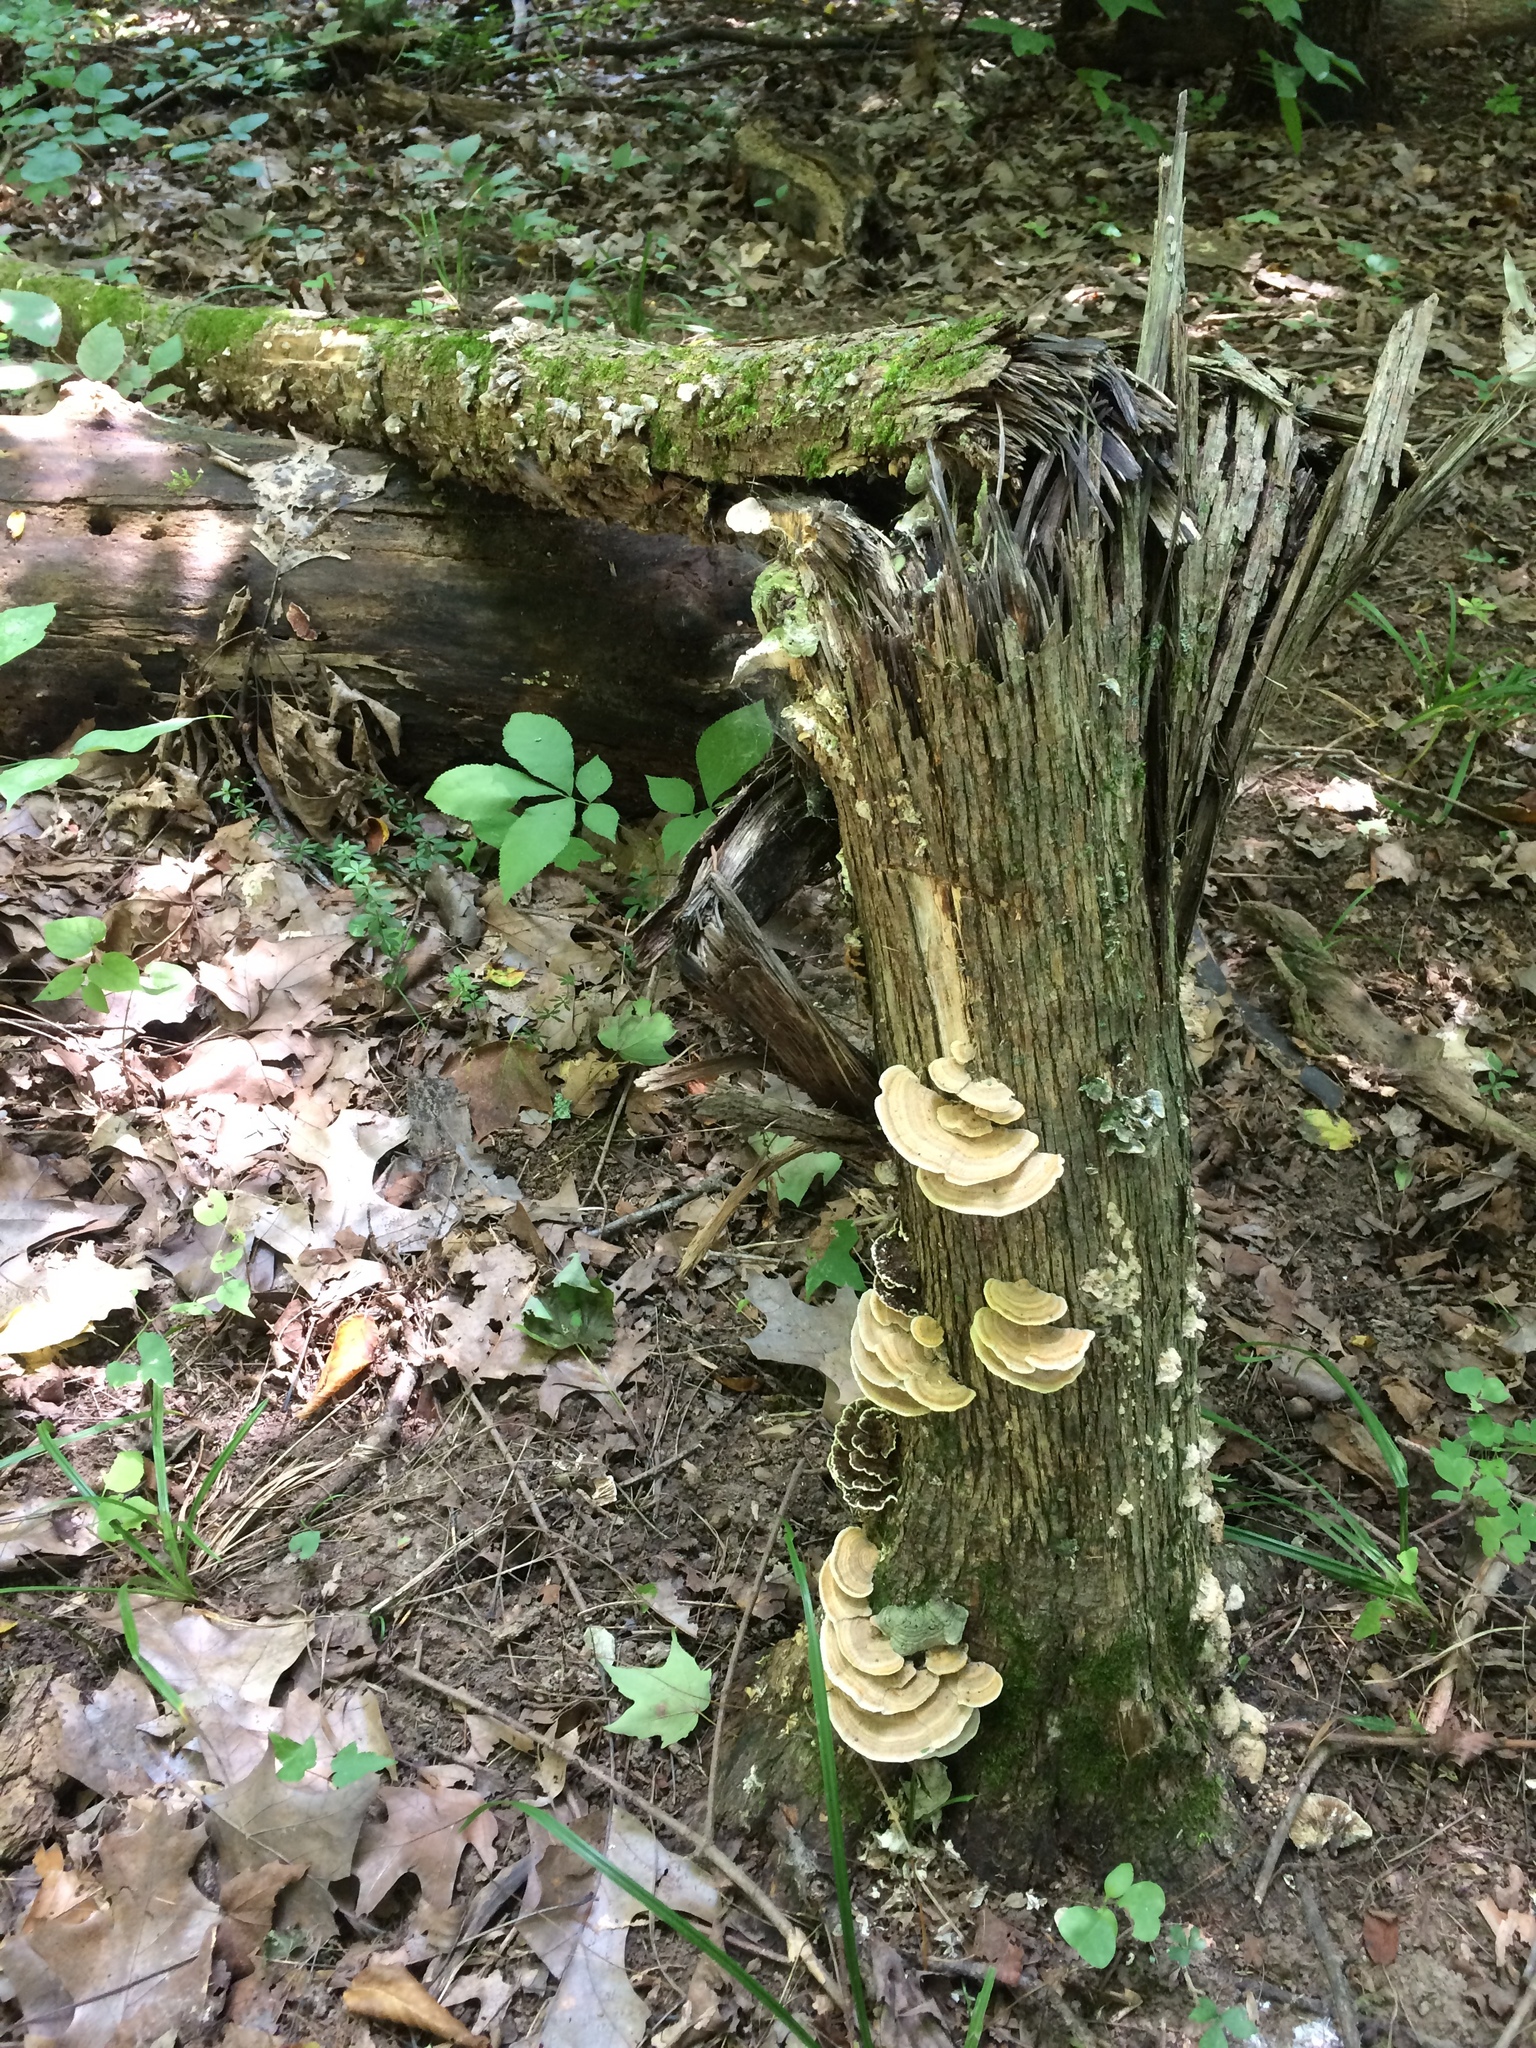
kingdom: Fungi
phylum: Basidiomycota
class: Agaricomycetes
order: Polyporales
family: Polyporaceae
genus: Lenzites
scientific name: Lenzites betulinus
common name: Birch mazegill
